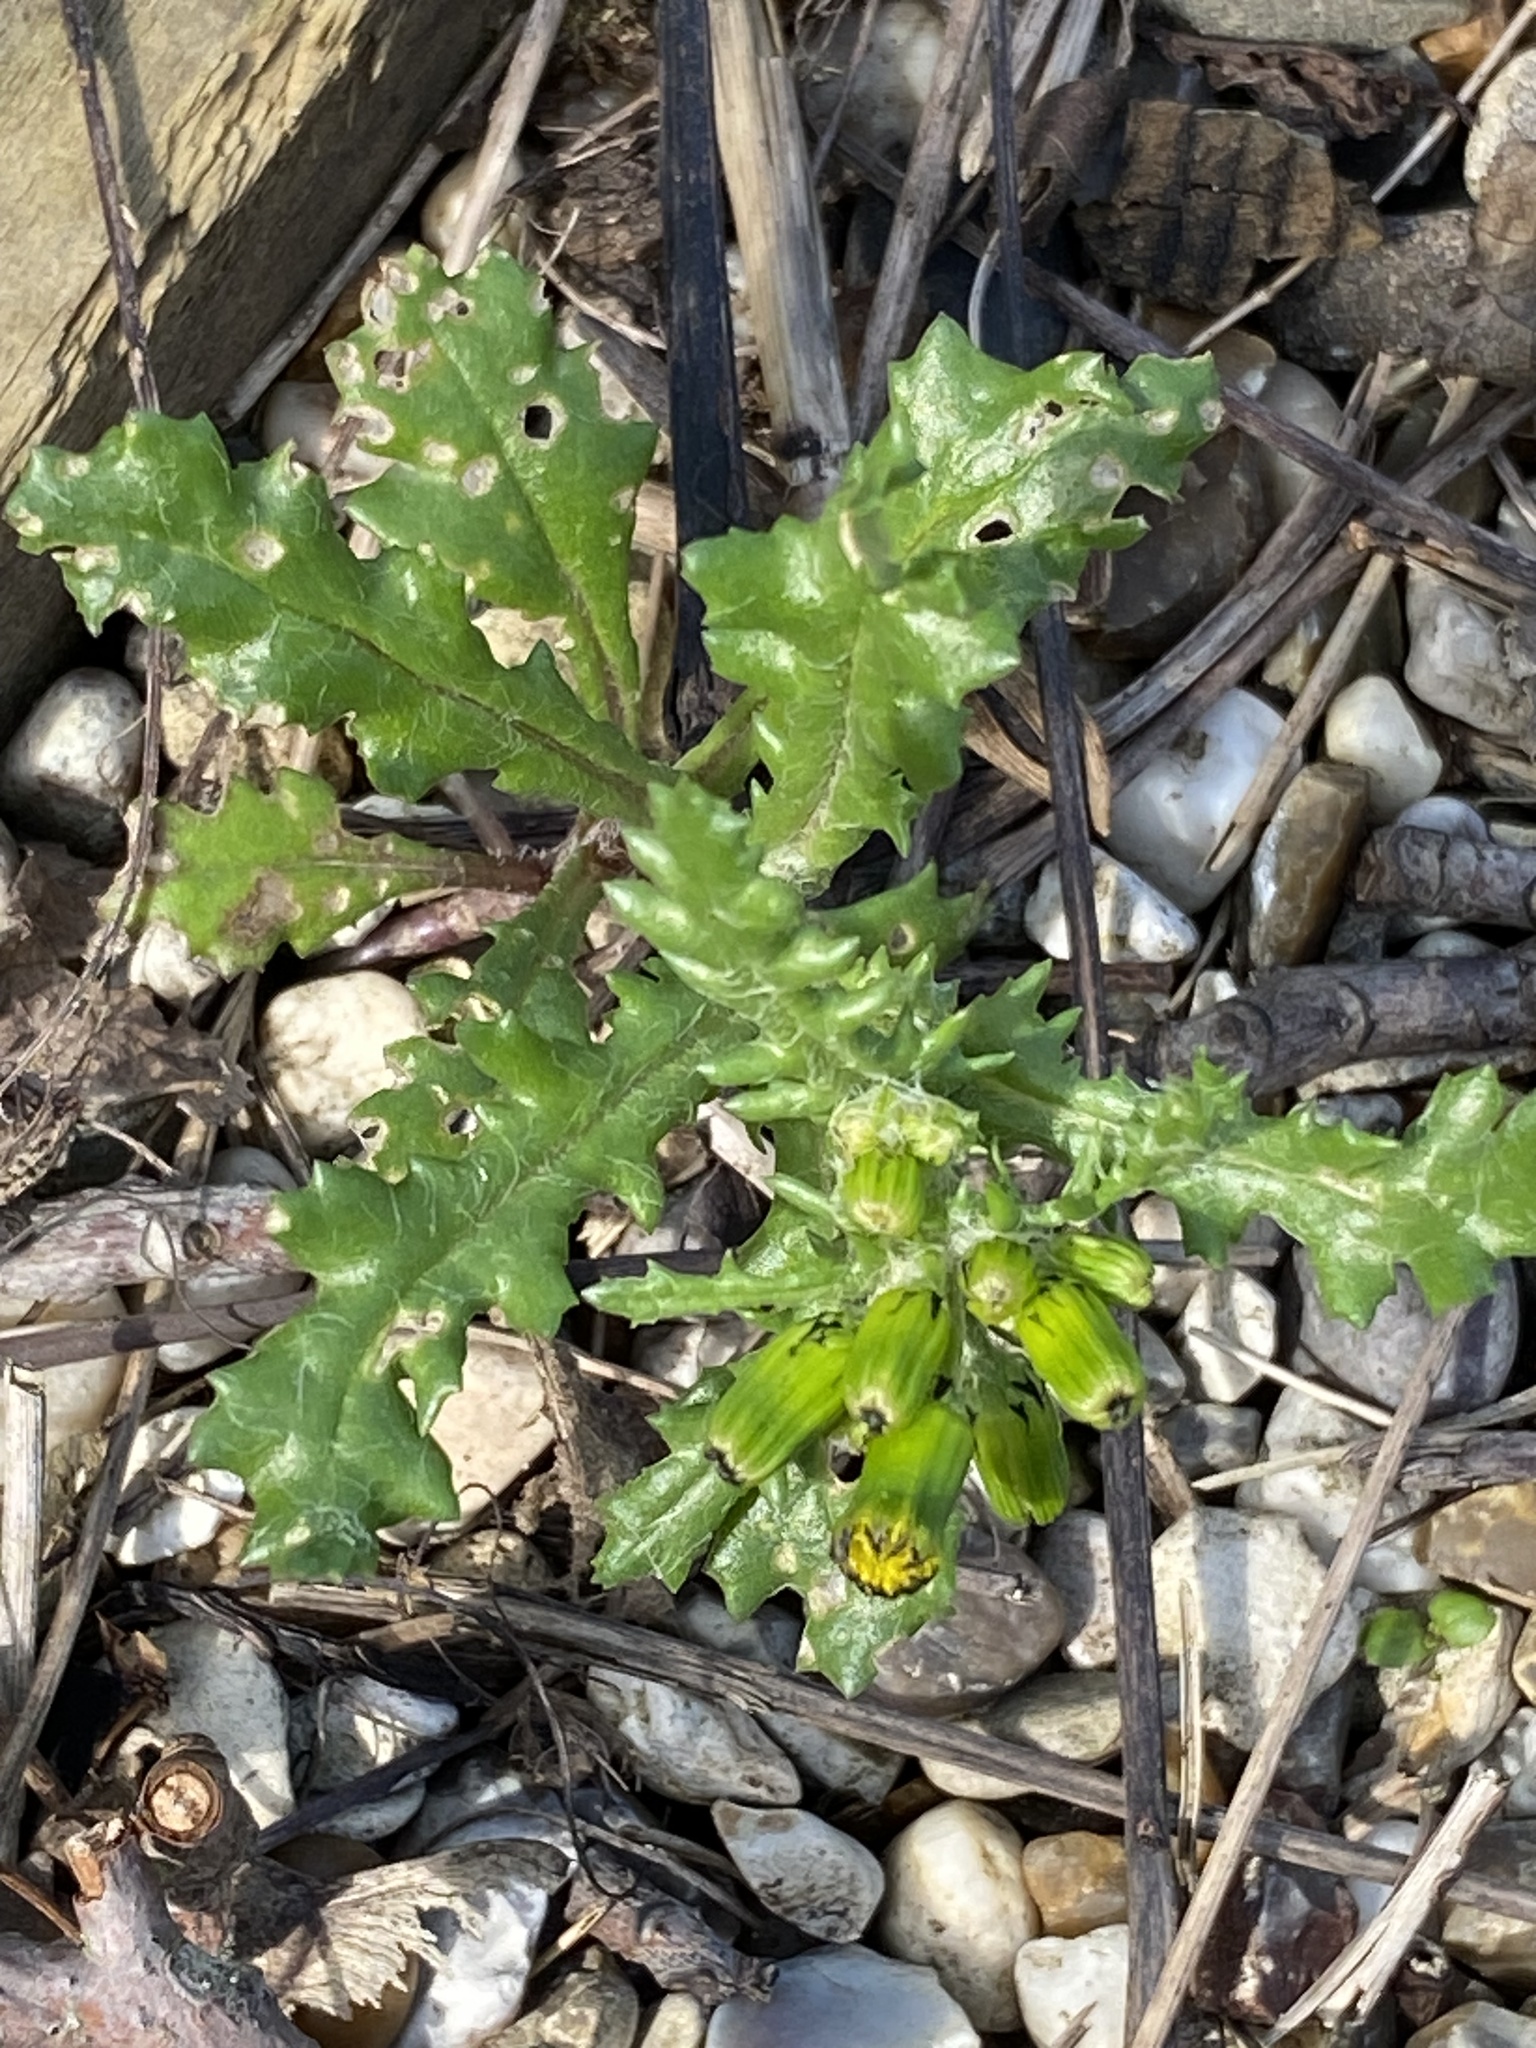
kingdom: Plantae
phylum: Tracheophyta
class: Magnoliopsida
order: Asterales
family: Asteraceae
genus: Senecio
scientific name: Senecio vulgaris
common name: Old-man-in-the-spring
